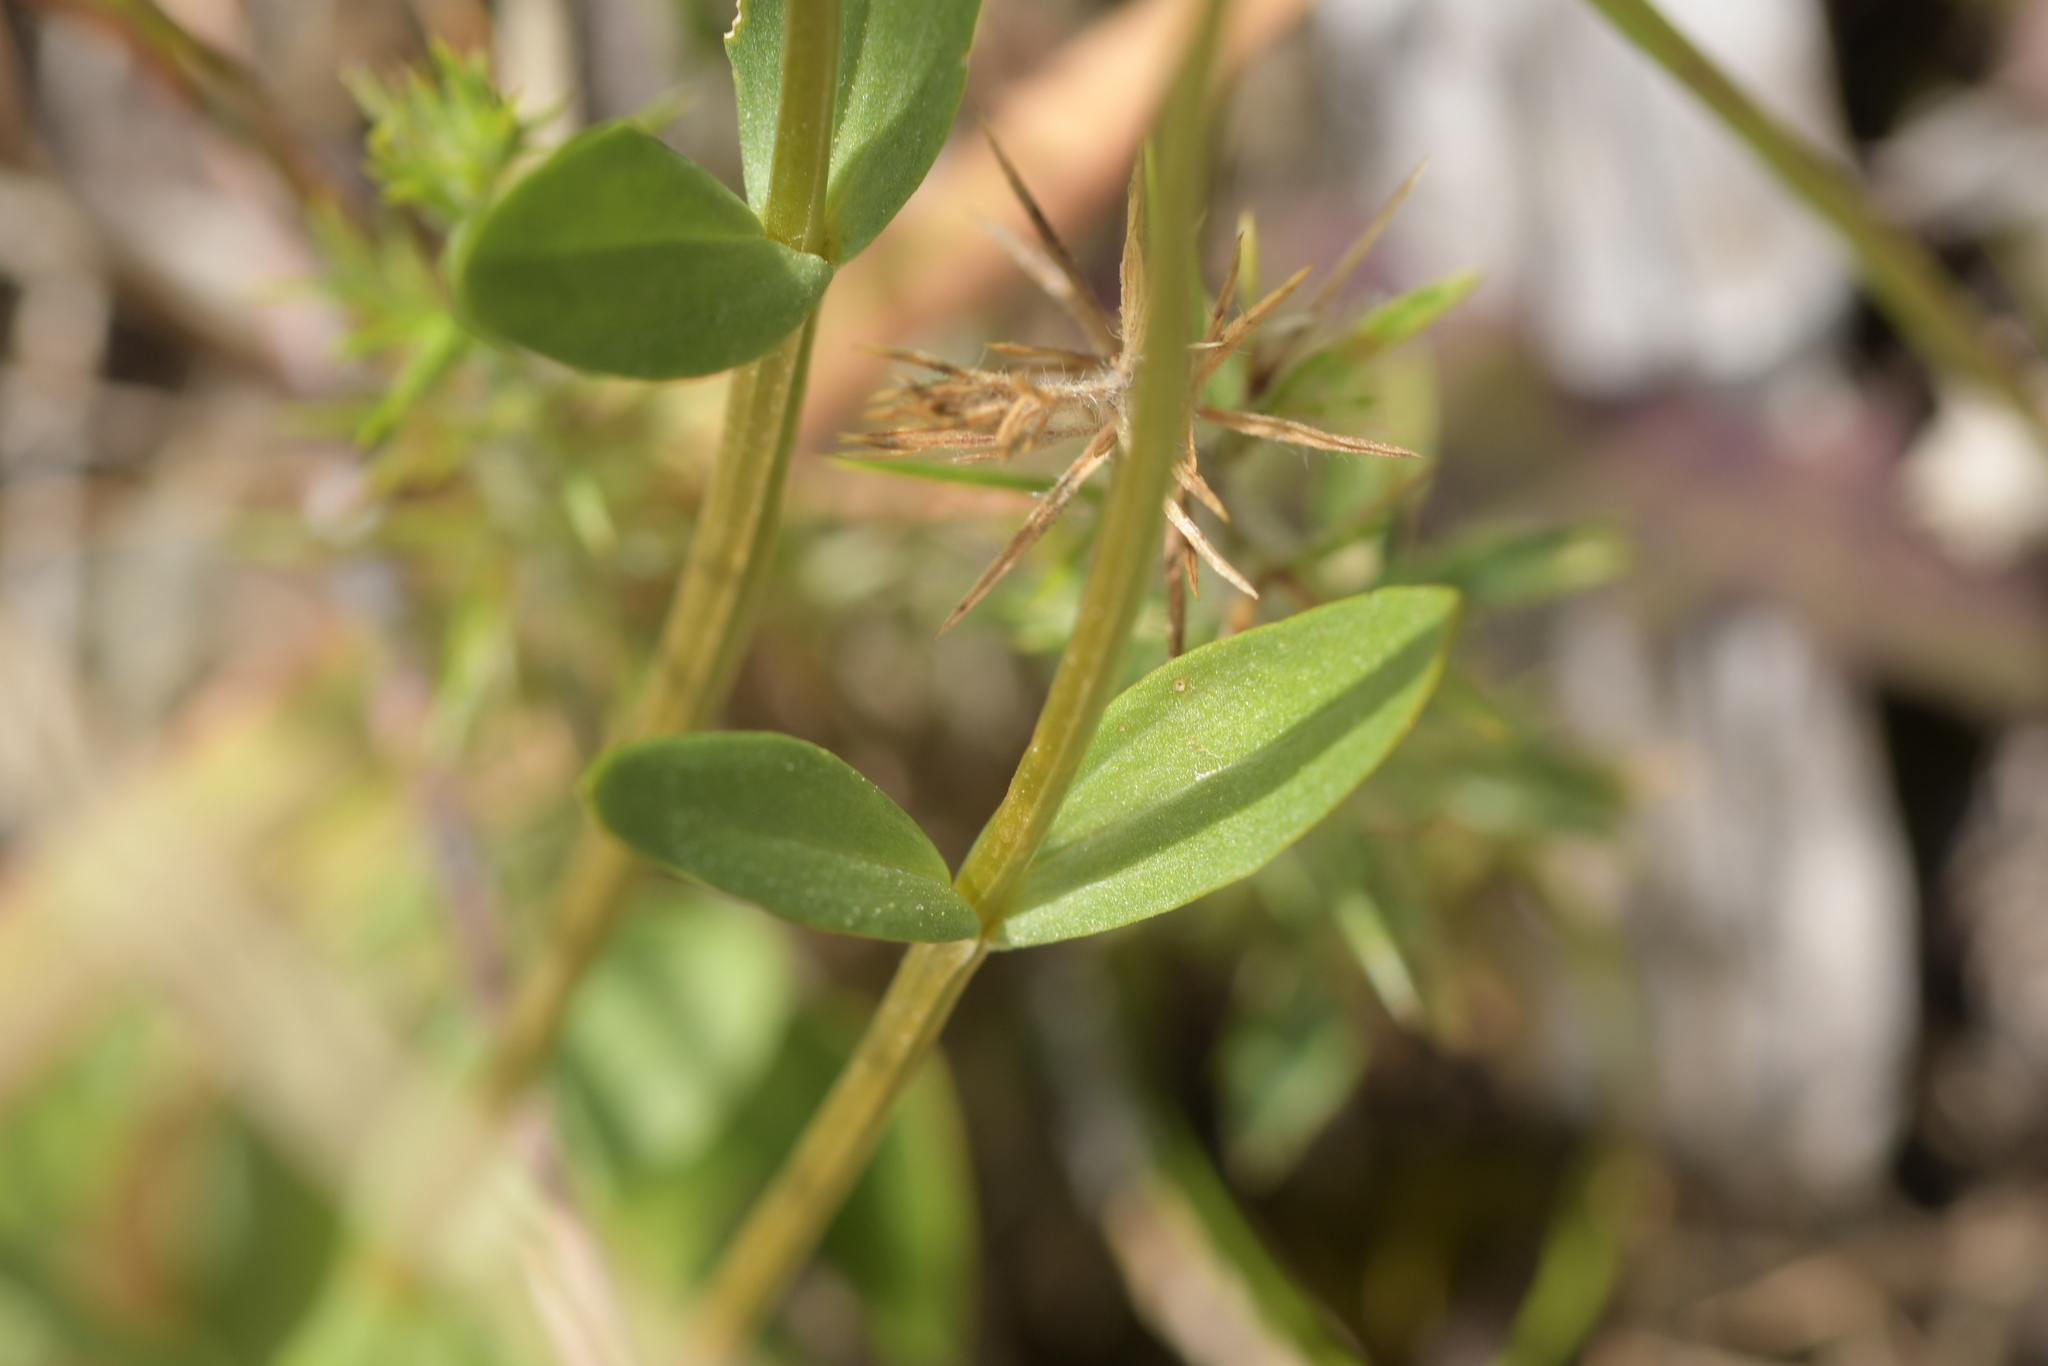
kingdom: Plantae
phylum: Tracheophyta
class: Magnoliopsida
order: Gentianales
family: Gentianaceae
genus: Centaurium
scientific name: Centaurium erythraea
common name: Common centaury
